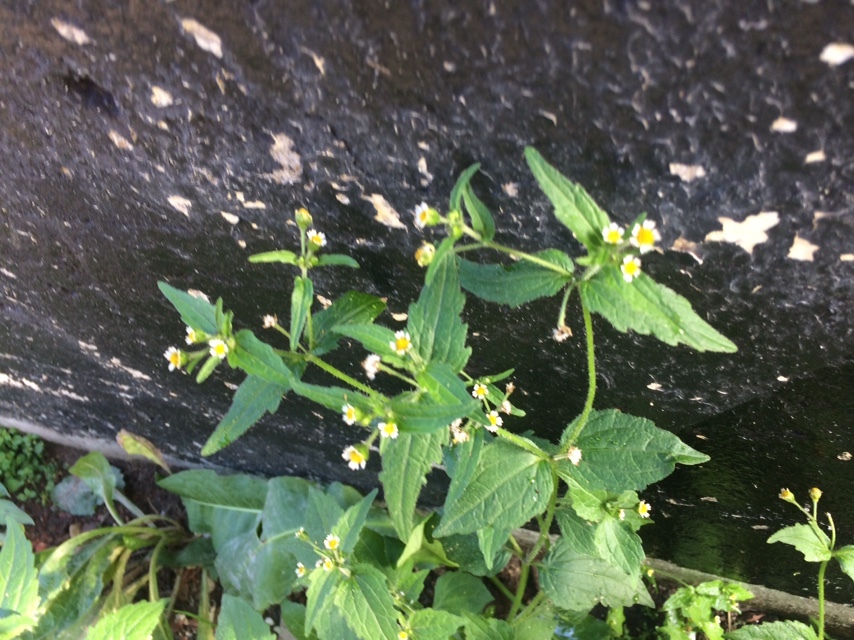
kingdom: Plantae
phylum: Tracheophyta
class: Magnoliopsida
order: Asterales
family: Asteraceae
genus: Galinsoga
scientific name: Galinsoga quadriradiata
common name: Shaggy soldier
